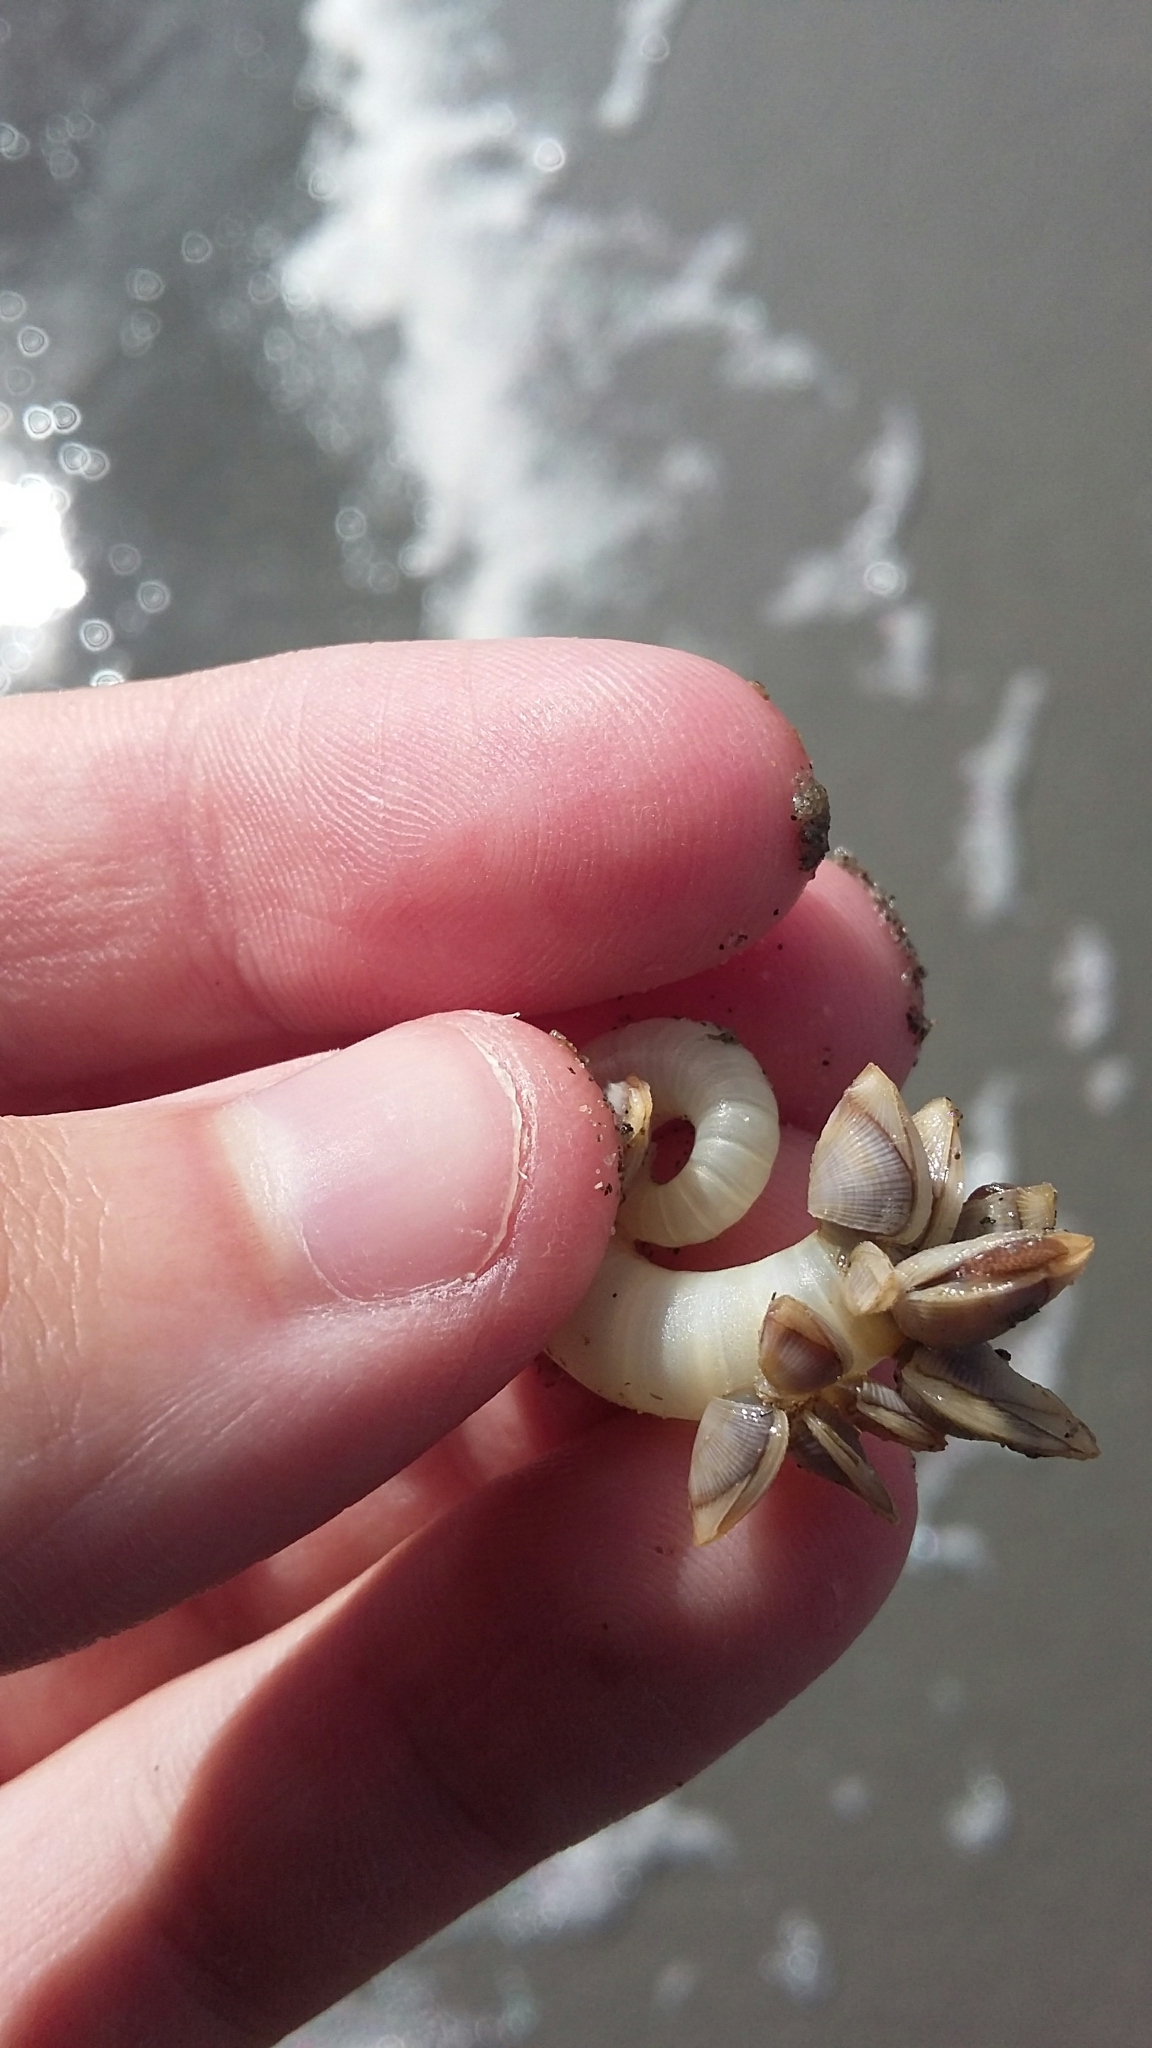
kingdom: Animalia
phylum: Arthropoda
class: Maxillopoda
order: Pedunculata
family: Lepadidae
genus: Lepas
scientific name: Lepas pectinata
